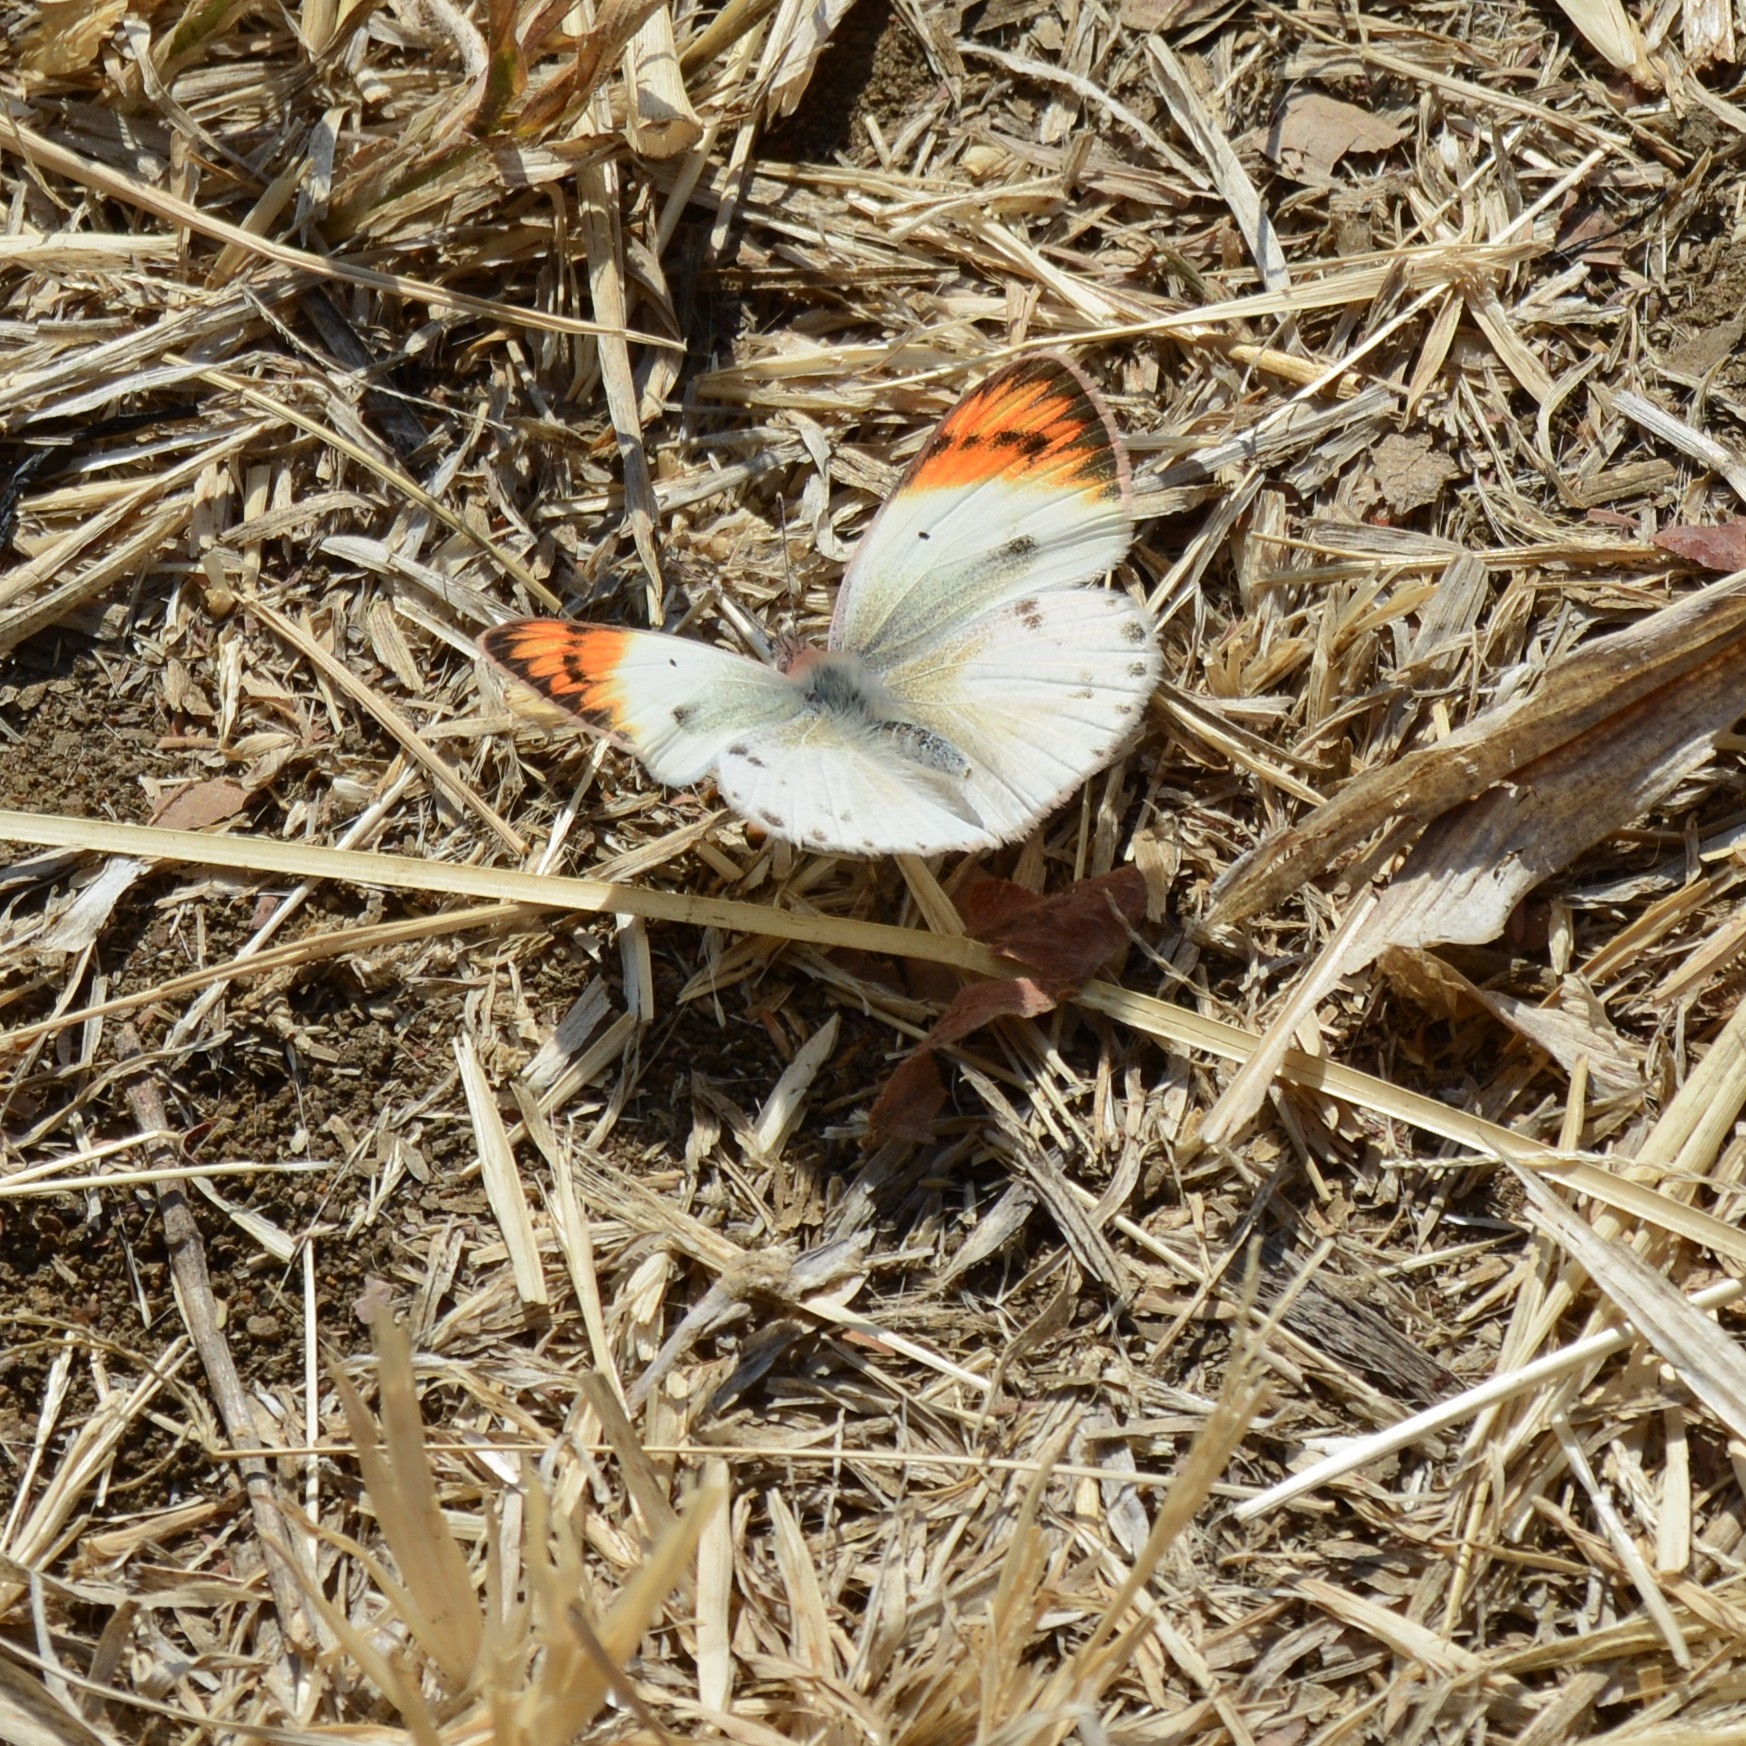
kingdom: Animalia
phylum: Arthropoda
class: Insecta
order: Lepidoptera
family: Pieridae
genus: Colotis
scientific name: Colotis antevippe
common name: Large orange tip
